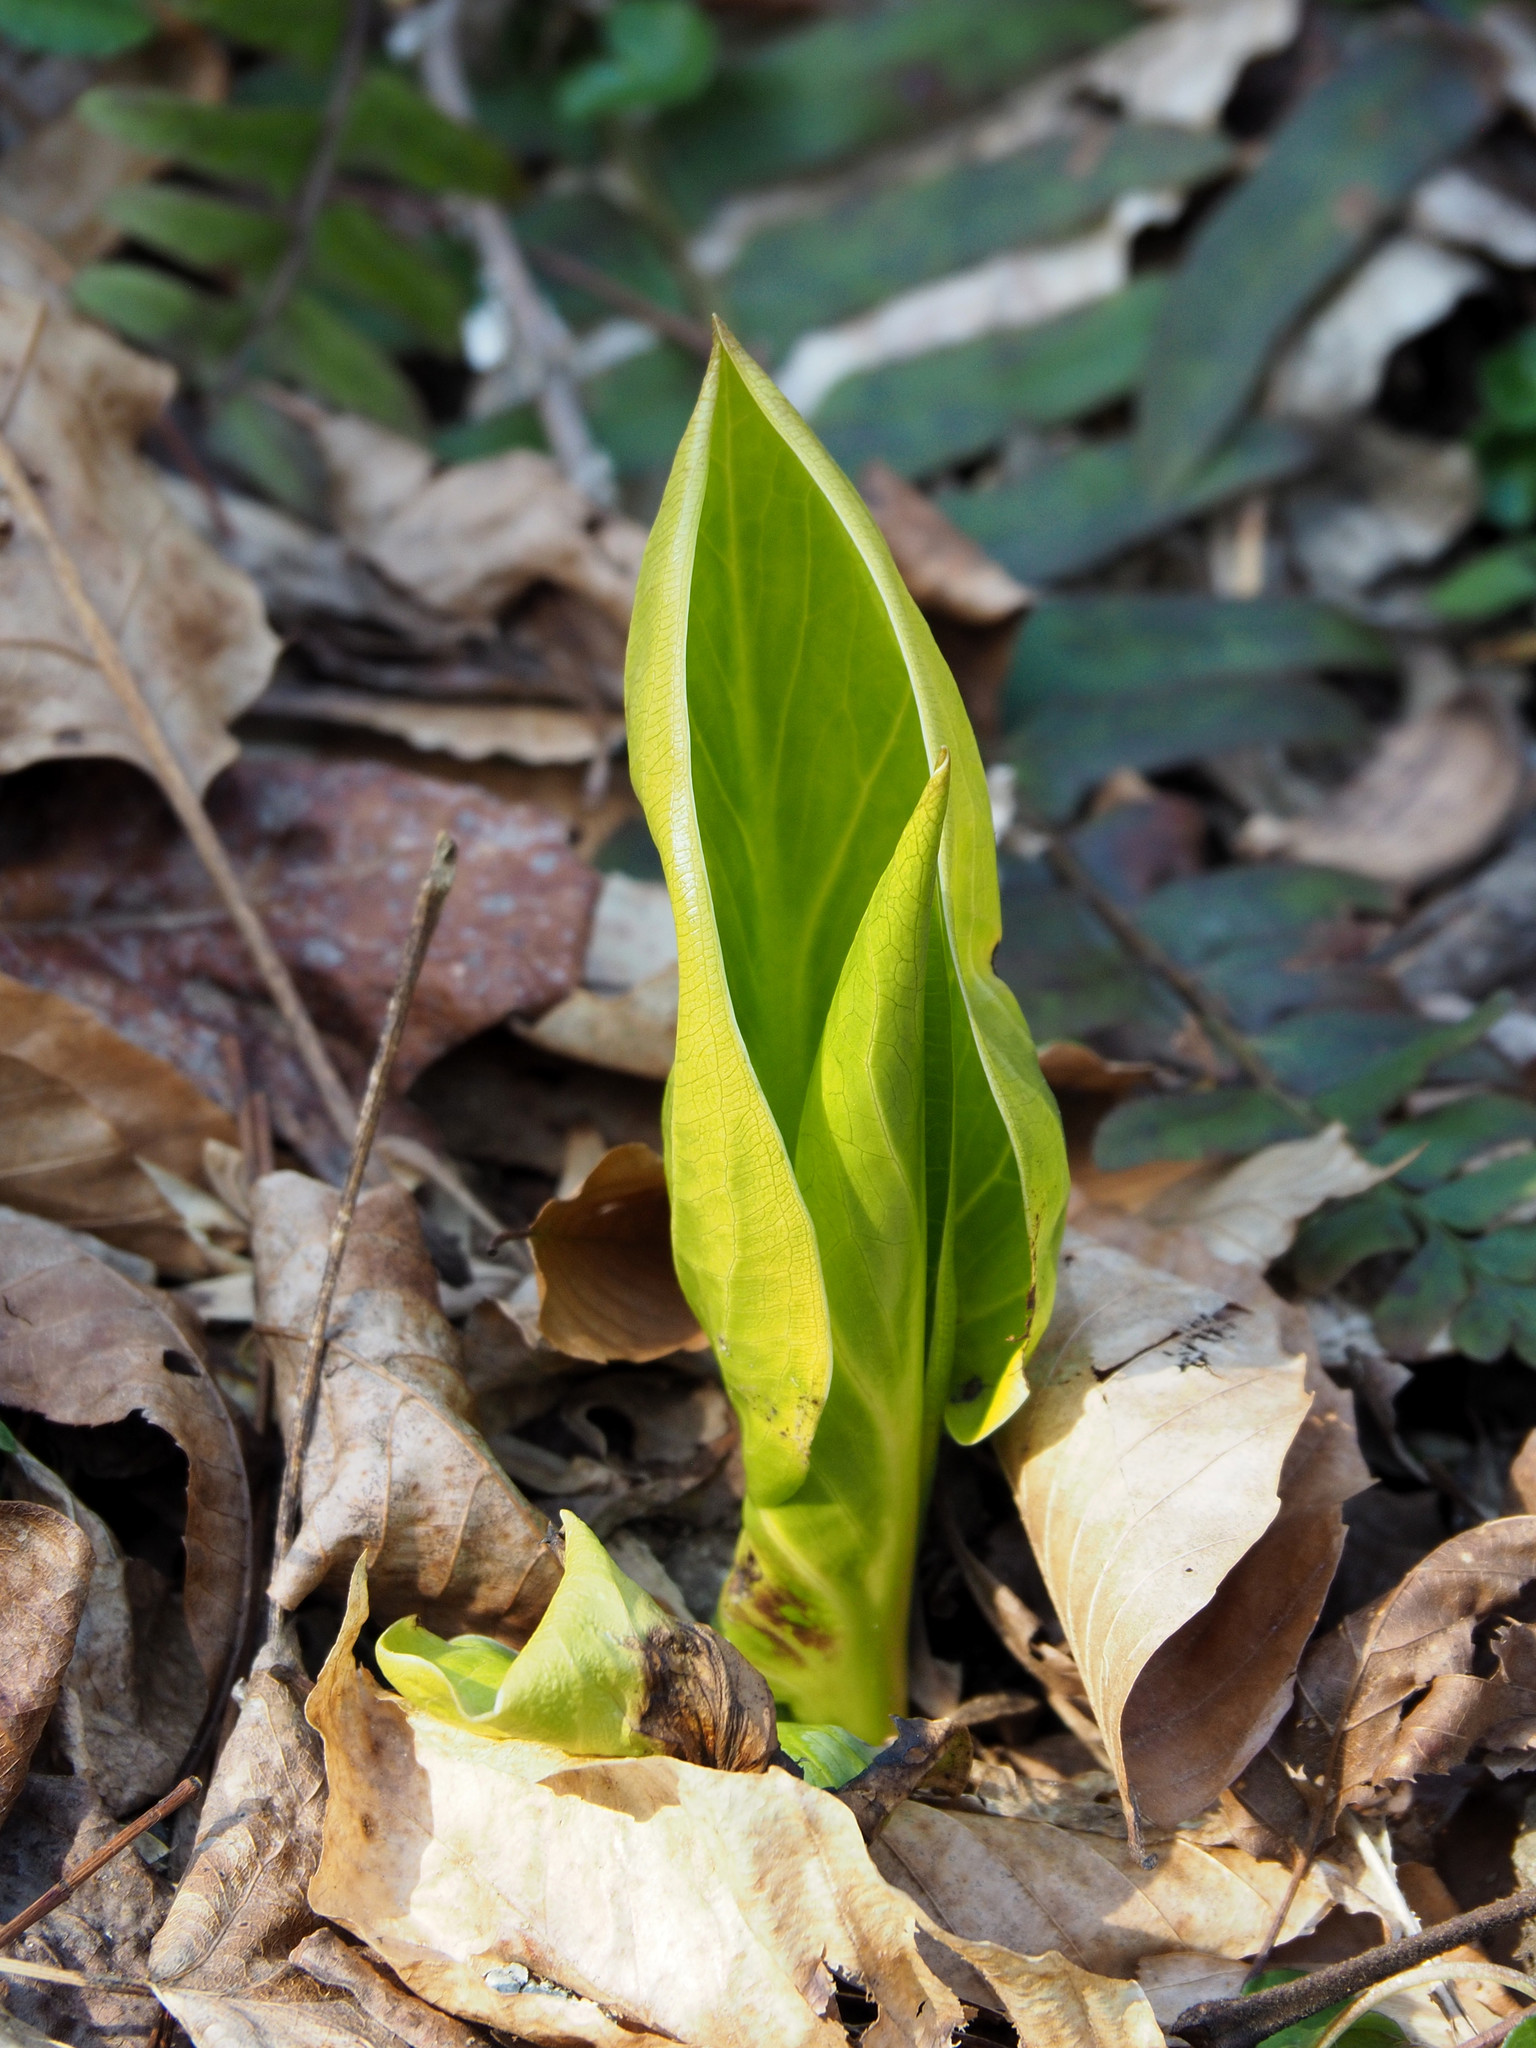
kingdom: Plantae
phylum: Tracheophyta
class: Liliopsida
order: Alismatales
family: Araceae
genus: Symplocarpus
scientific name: Symplocarpus foetidus
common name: Eastern skunk cabbage
